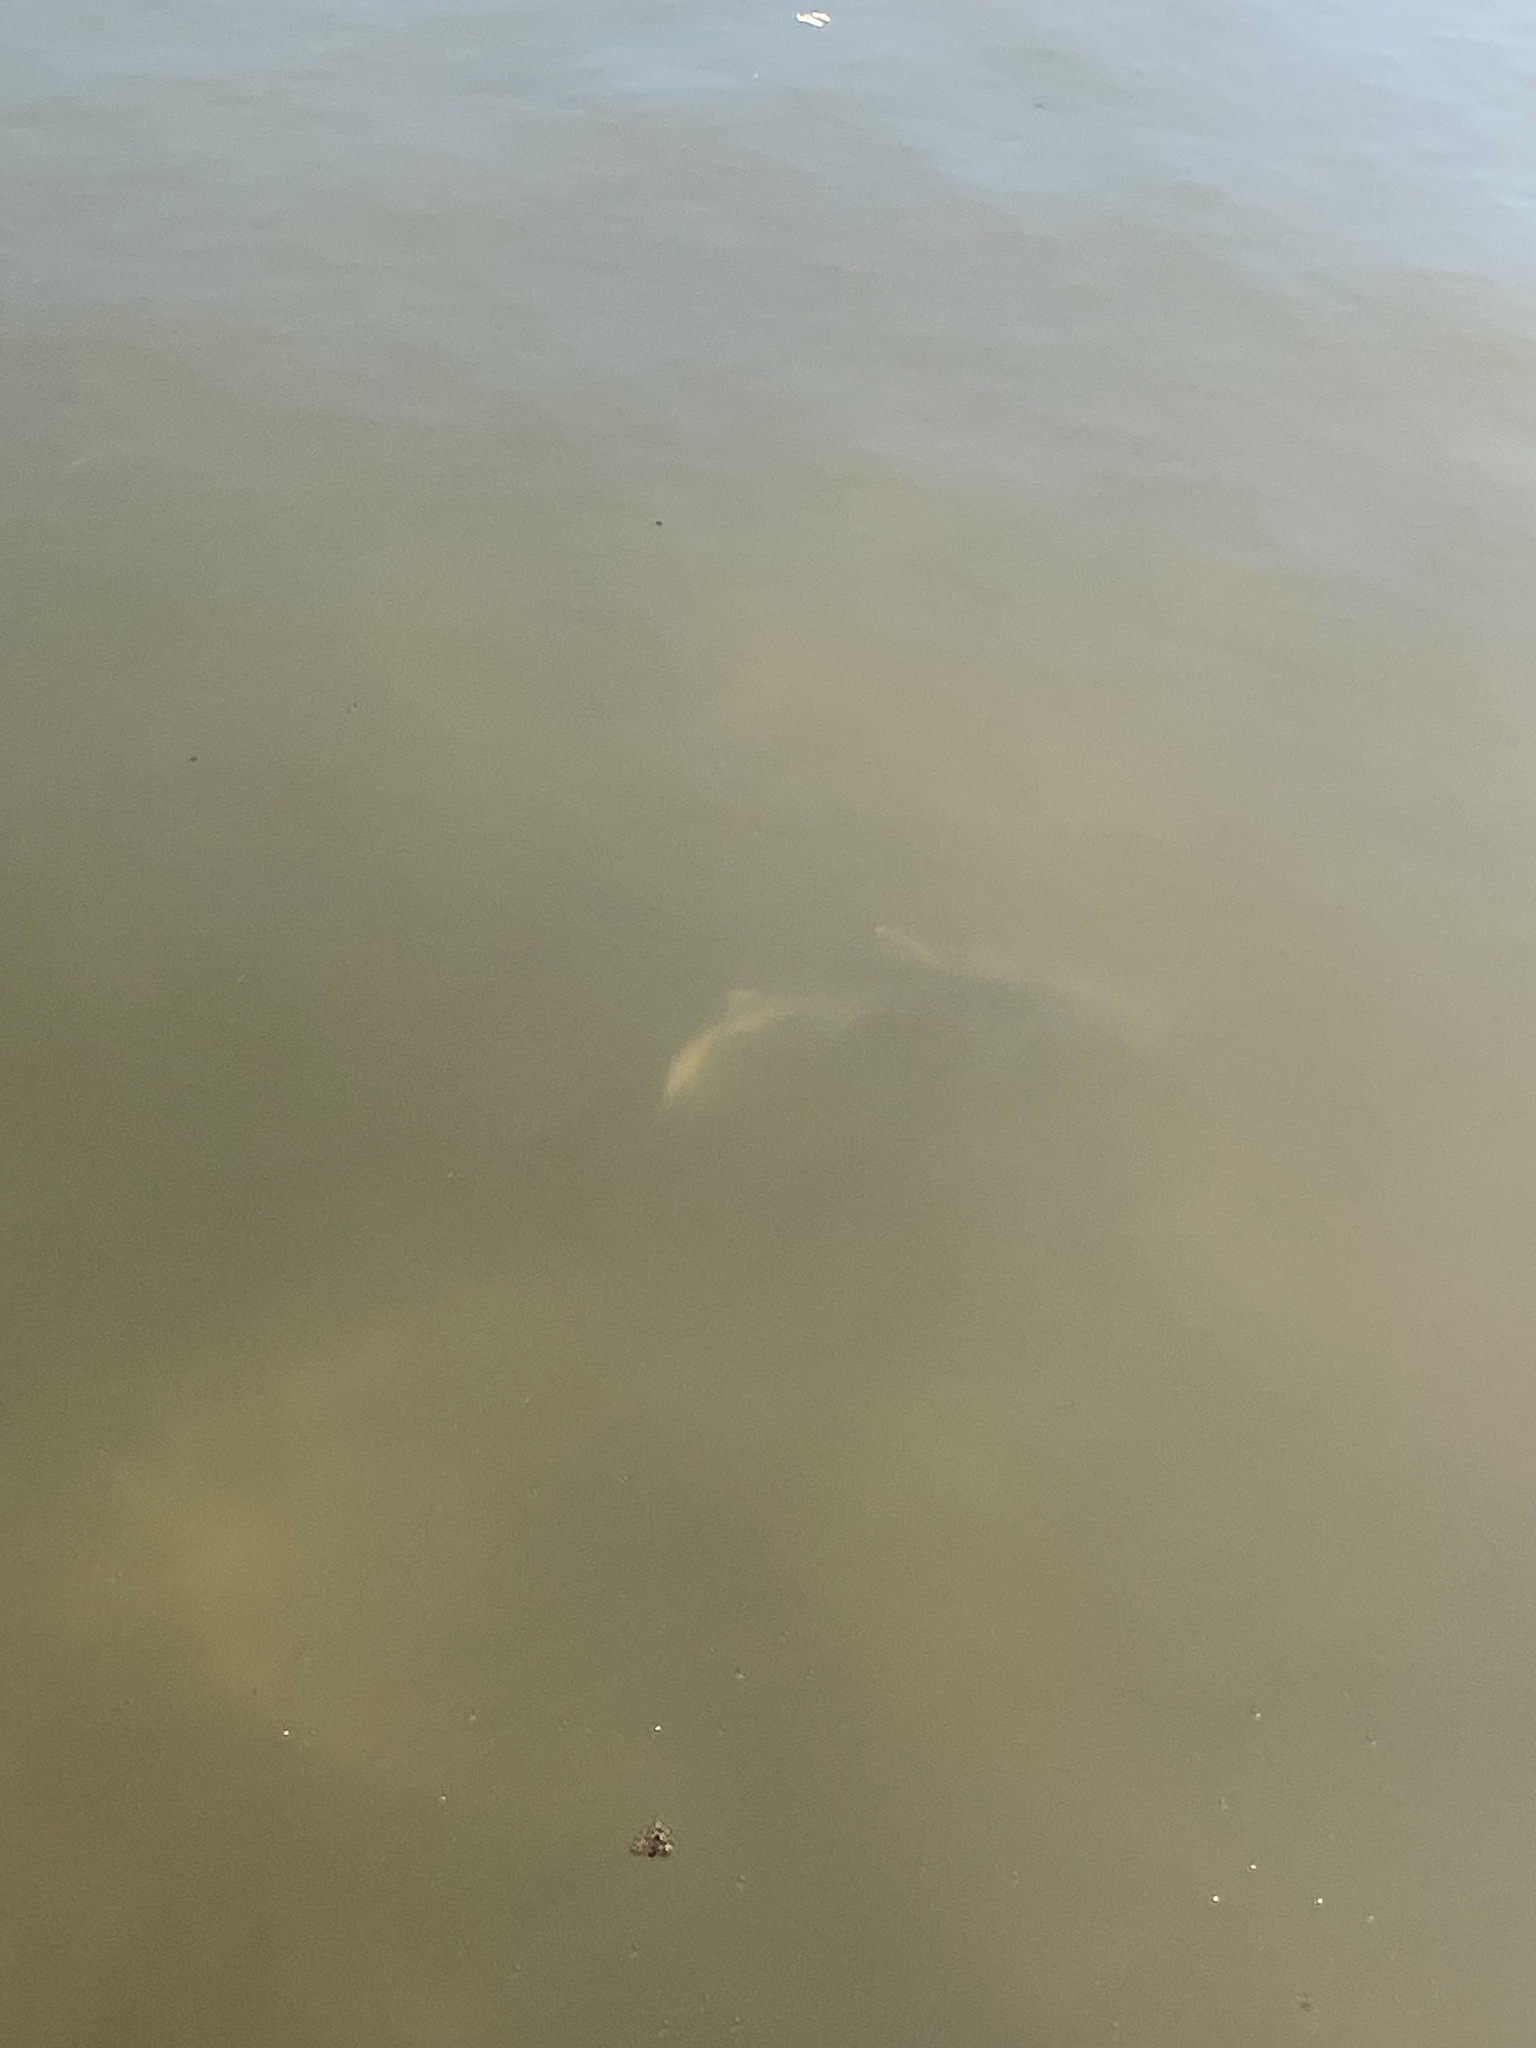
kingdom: Animalia
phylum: Chordata
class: Elasmobranchii
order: Carcharhiniformes
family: Sphyrnidae
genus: Sphyrna
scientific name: Sphyrna tiburo
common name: Bonnethead
